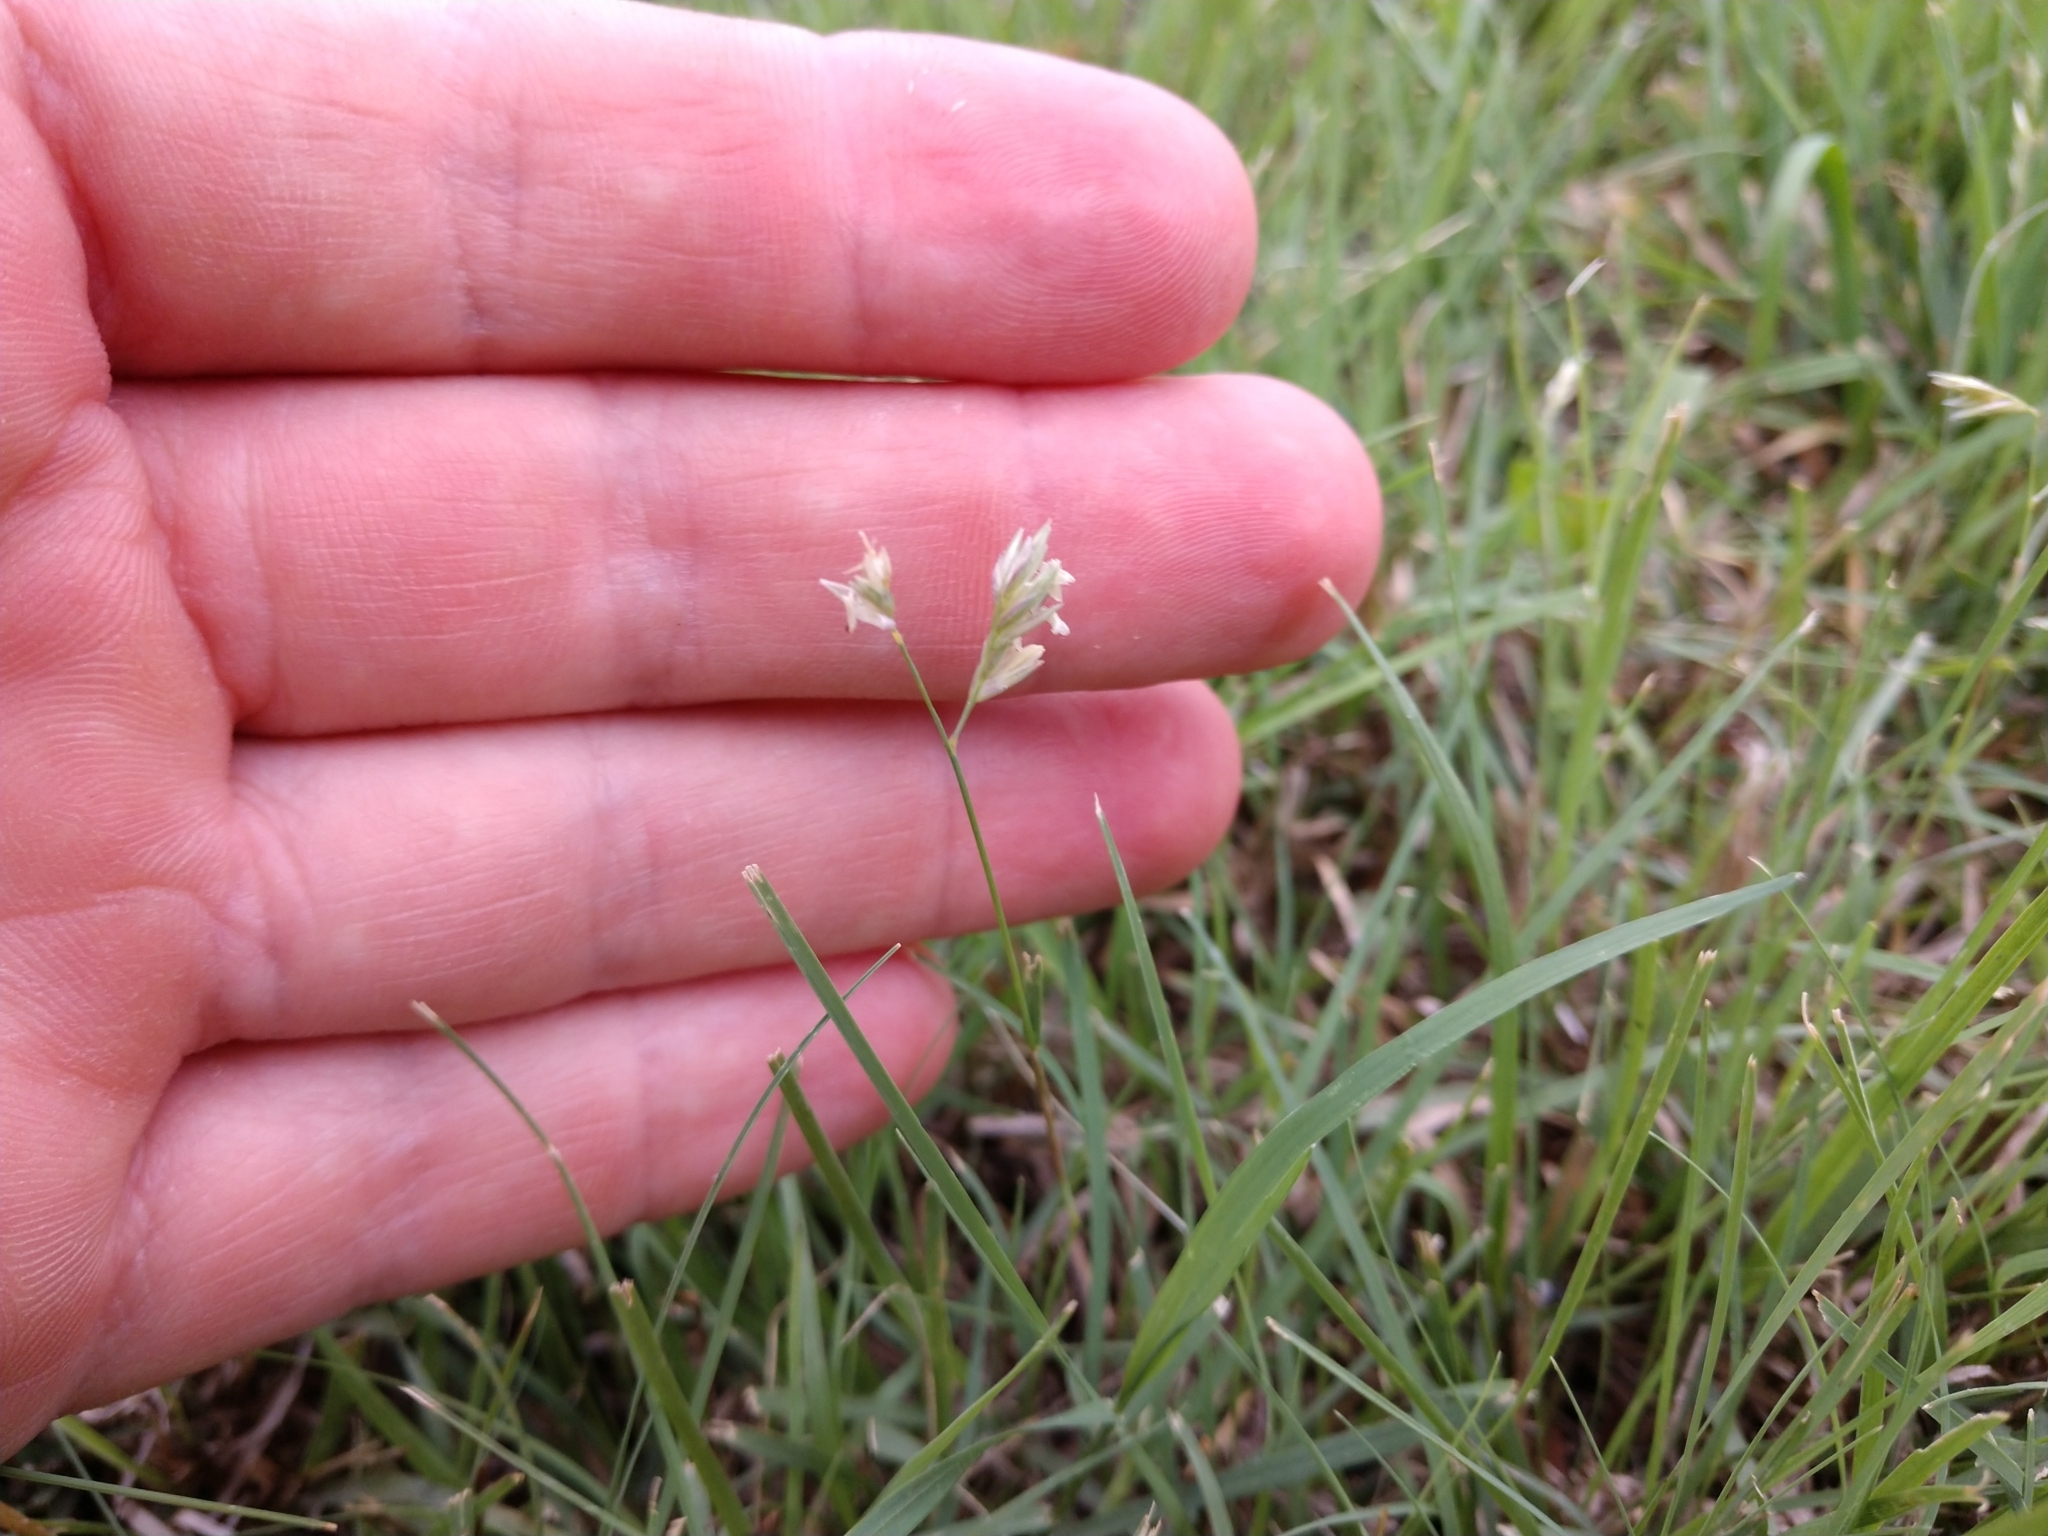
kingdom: Plantae
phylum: Tracheophyta
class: Liliopsida
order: Poales
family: Poaceae
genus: Bouteloua
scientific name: Bouteloua dactyloides
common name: Buffalo grass
